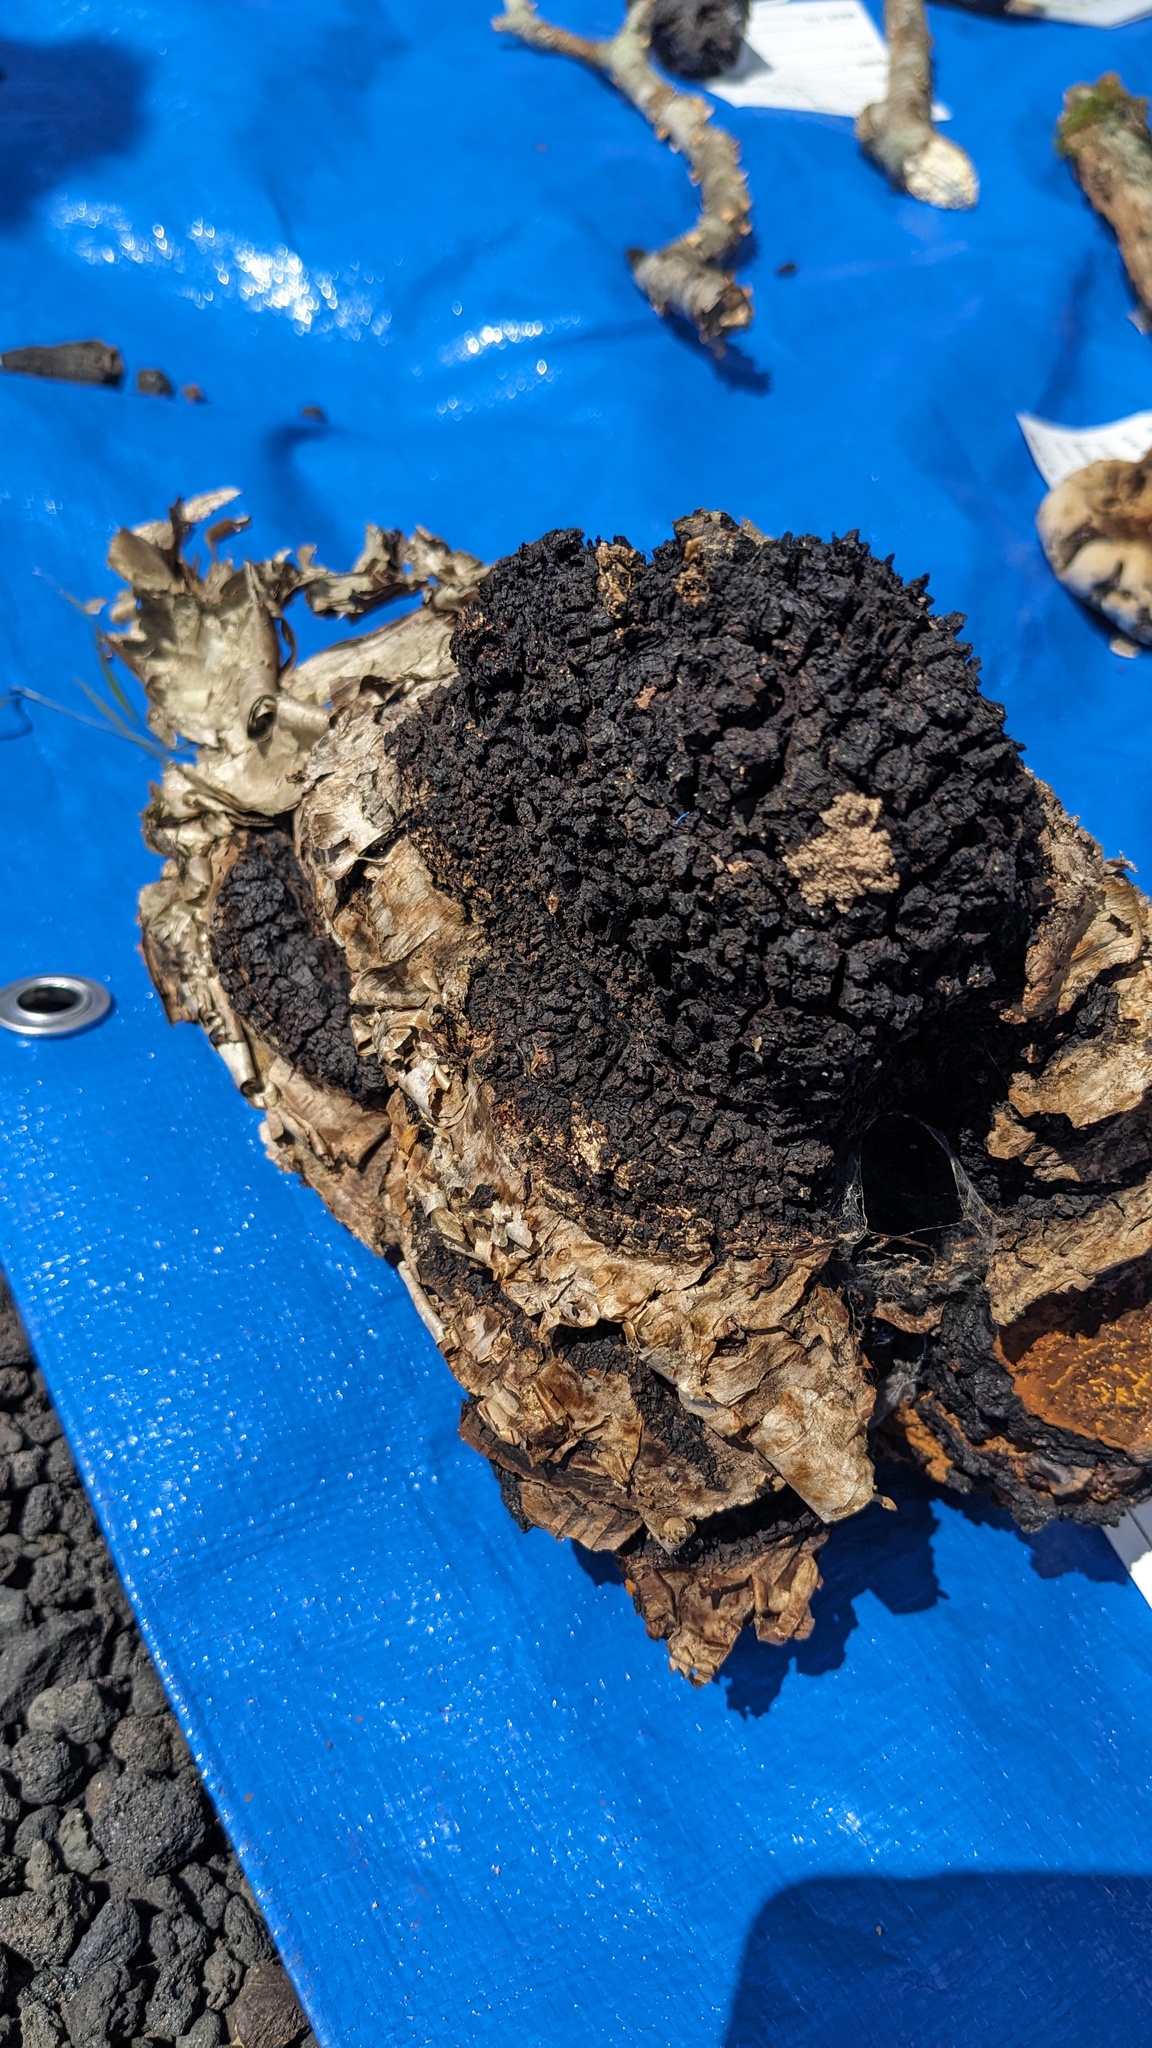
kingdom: Fungi
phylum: Basidiomycota
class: Agaricomycetes
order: Hymenochaetales
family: Hymenochaetaceae
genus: Inonotus
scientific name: Inonotus obliquus
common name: Chaga
